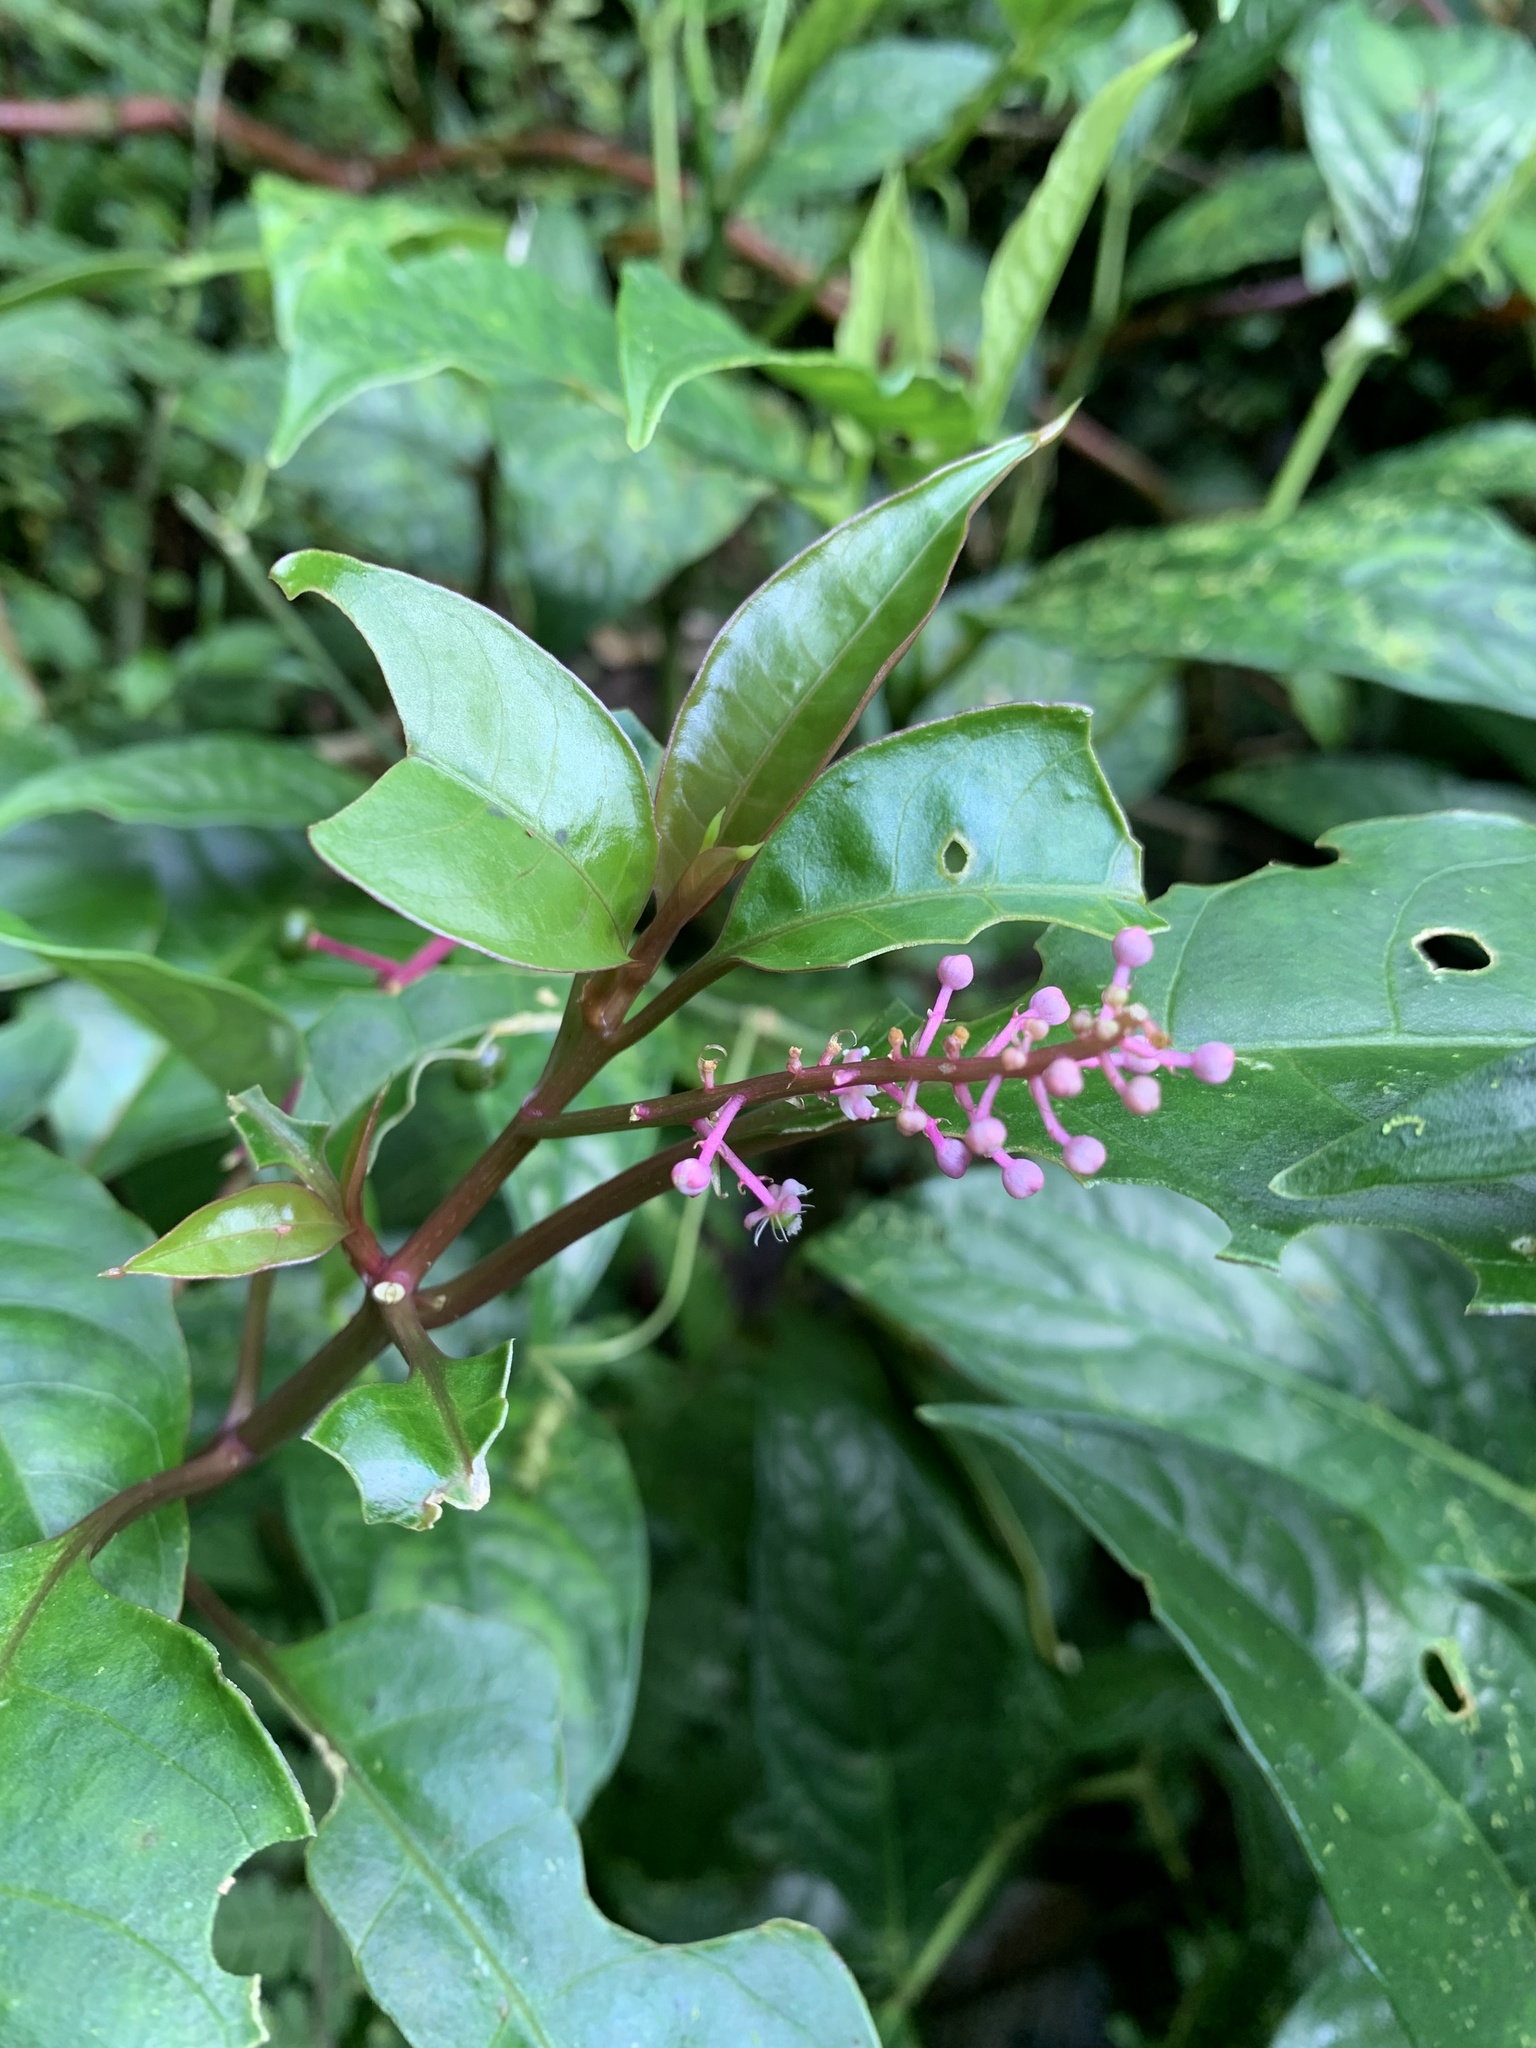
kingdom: Plantae
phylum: Tracheophyta
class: Magnoliopsida
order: Caryophyllales
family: Phytolaccaceae
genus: Phytolacca
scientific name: Phytolacca rivinoides
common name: Venezuelan pokeweed
